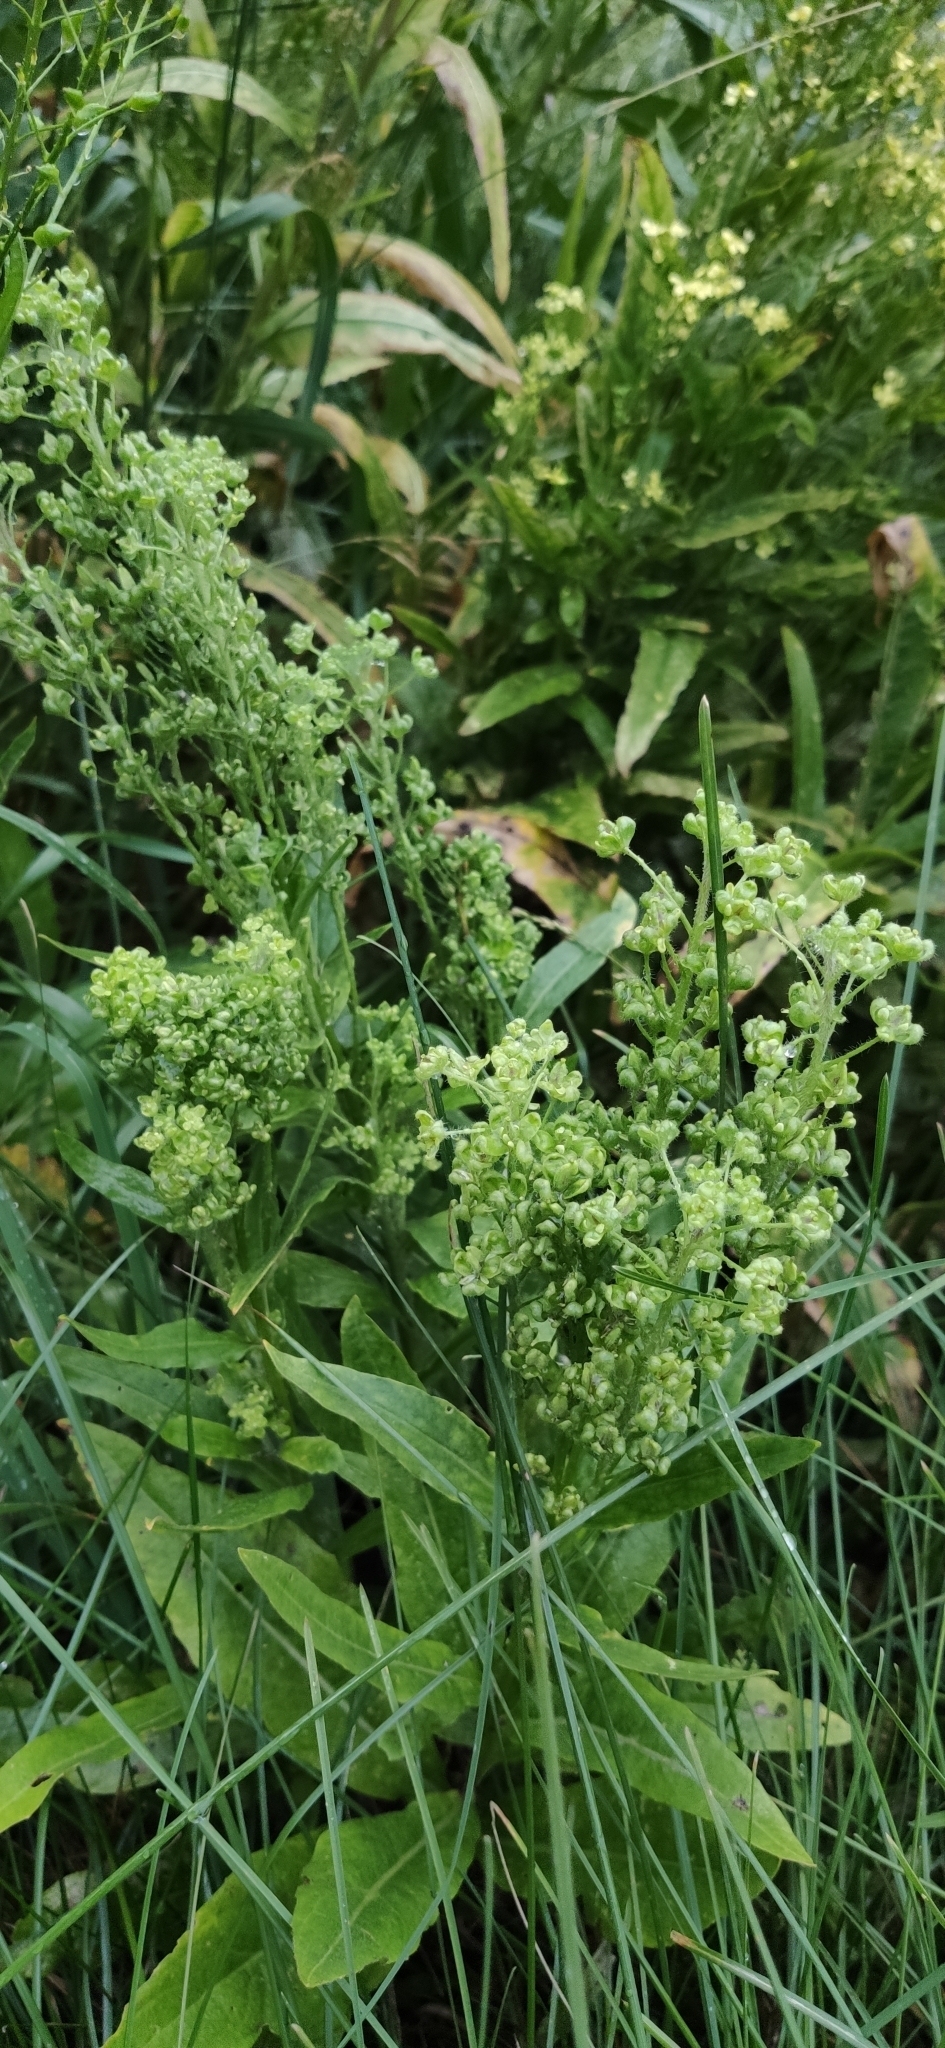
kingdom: Plantae
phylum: Tracheophyta
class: Magnoliopsida
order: Brassicales
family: Brassicaceae
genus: Lepidium
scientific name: Lepidium draba
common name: Hoary cress
